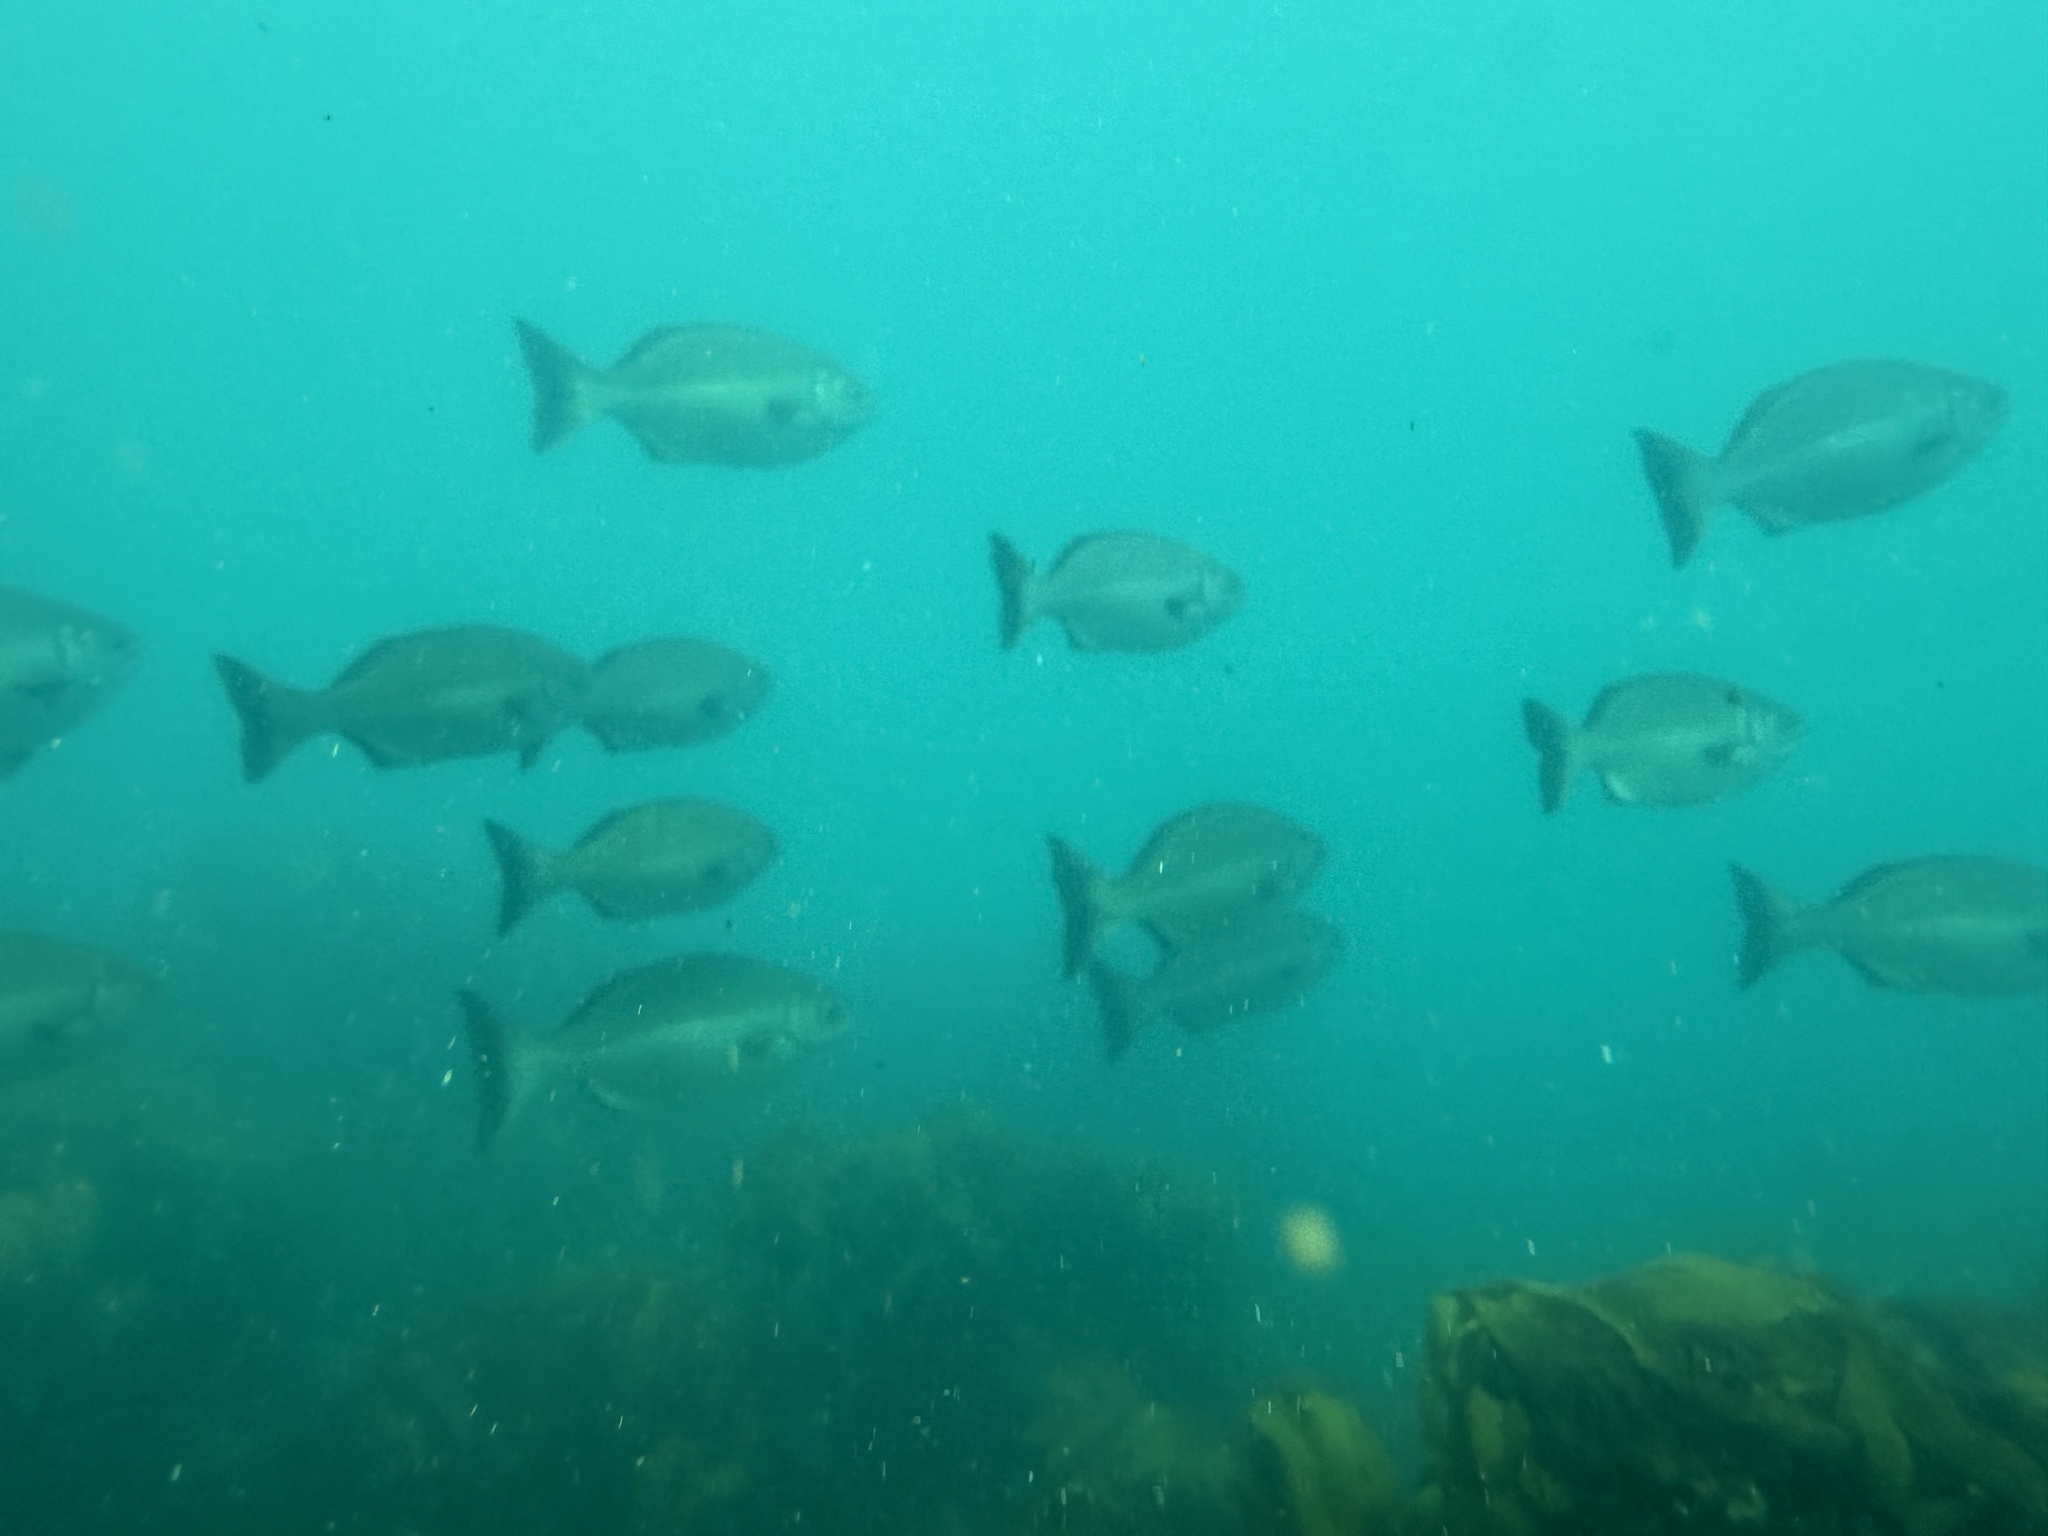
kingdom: Animalia
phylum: Chordata
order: Perciformes
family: Kyphosidae
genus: Kyphosus
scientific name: Kyphosus sydneyanus
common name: Silver drummer
